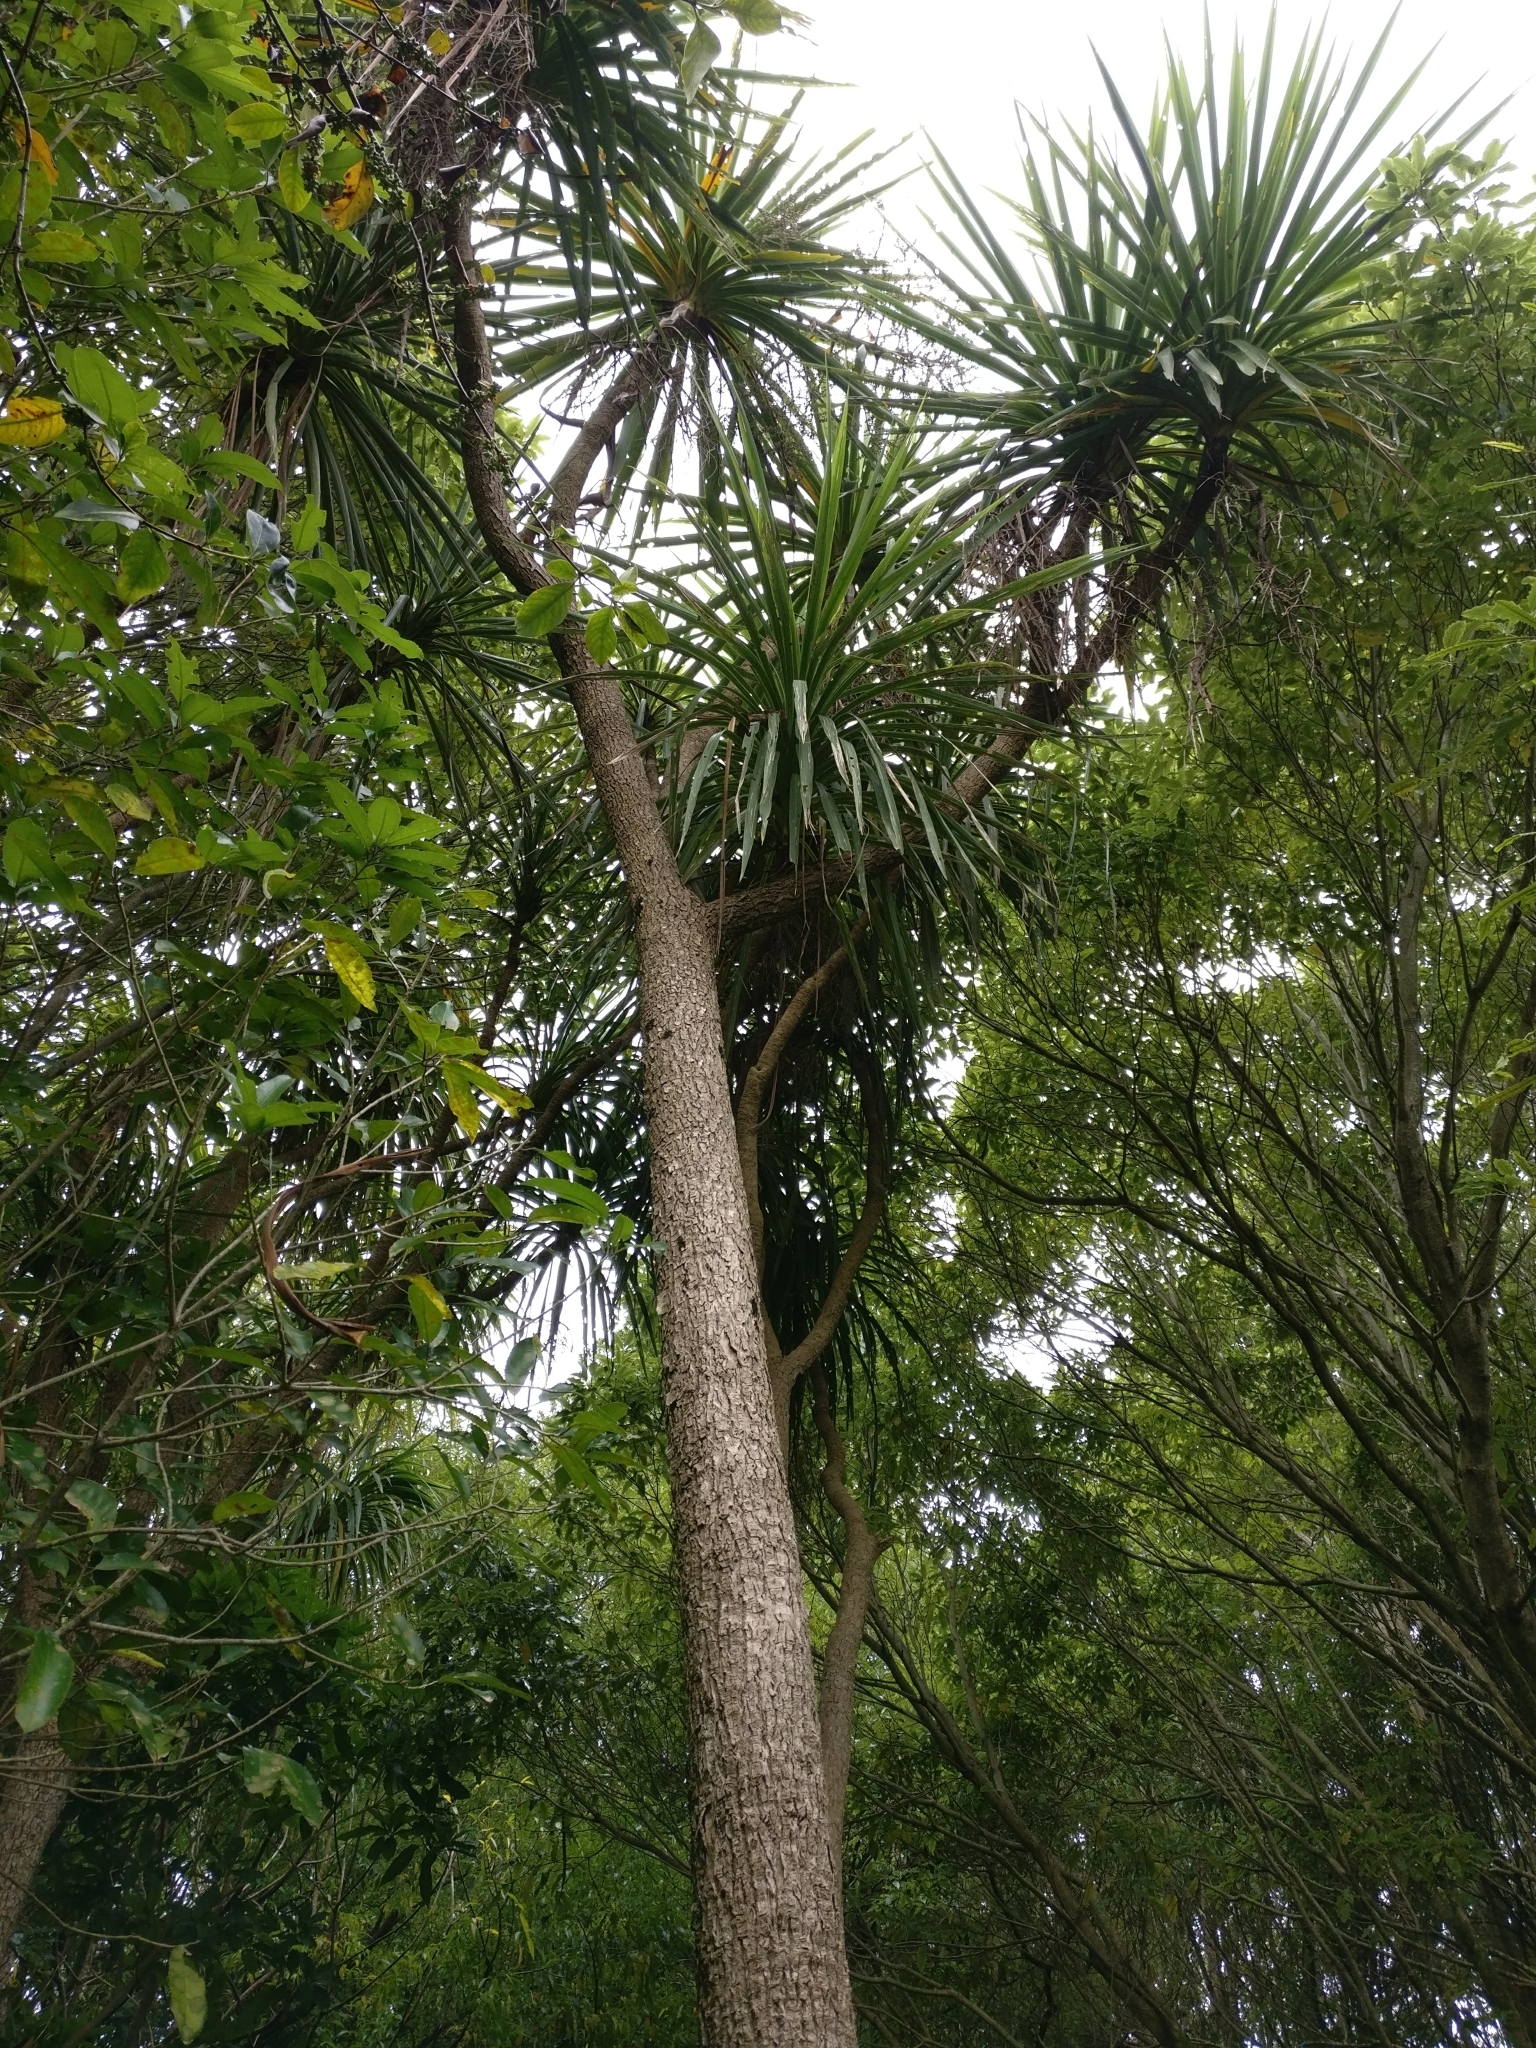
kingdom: Plantae
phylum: Tracheophyta
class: Liliopsida
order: Asparagales
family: Asparagaceae
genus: Cordyline
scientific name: Cordyline australis
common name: Cabbage-palm
